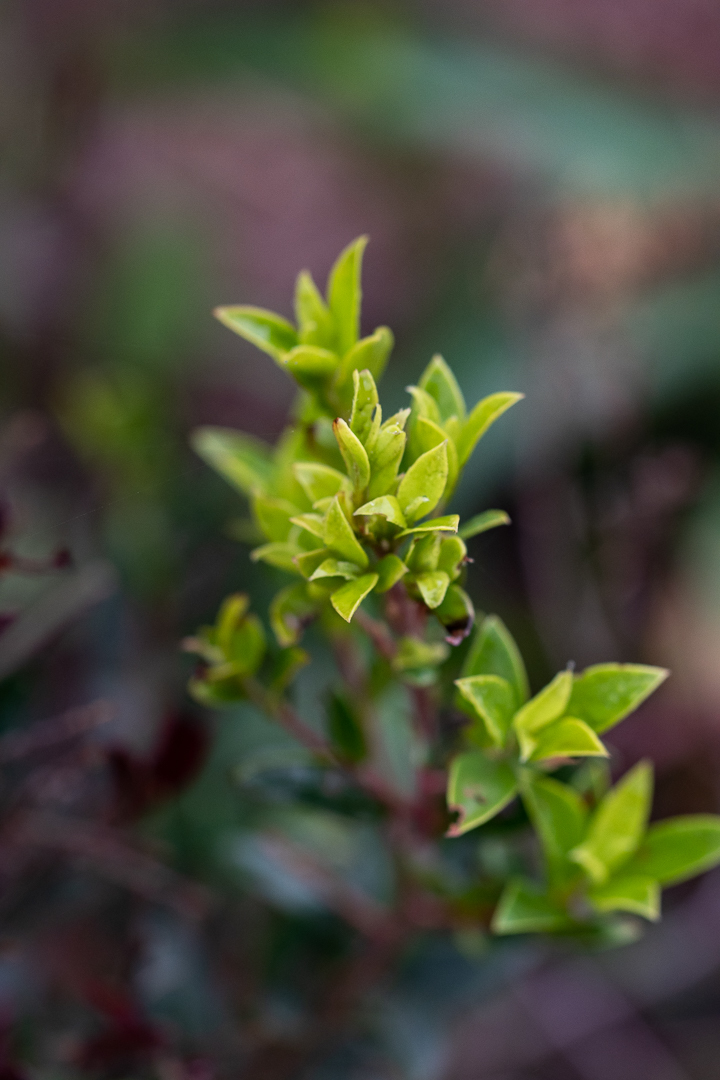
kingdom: Plantae
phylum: Tracheophyta
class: Magnoliopsida
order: Ericales
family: Ebenaceae
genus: Diospyros
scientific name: Diospyros glabra
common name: Fynbos star apple
